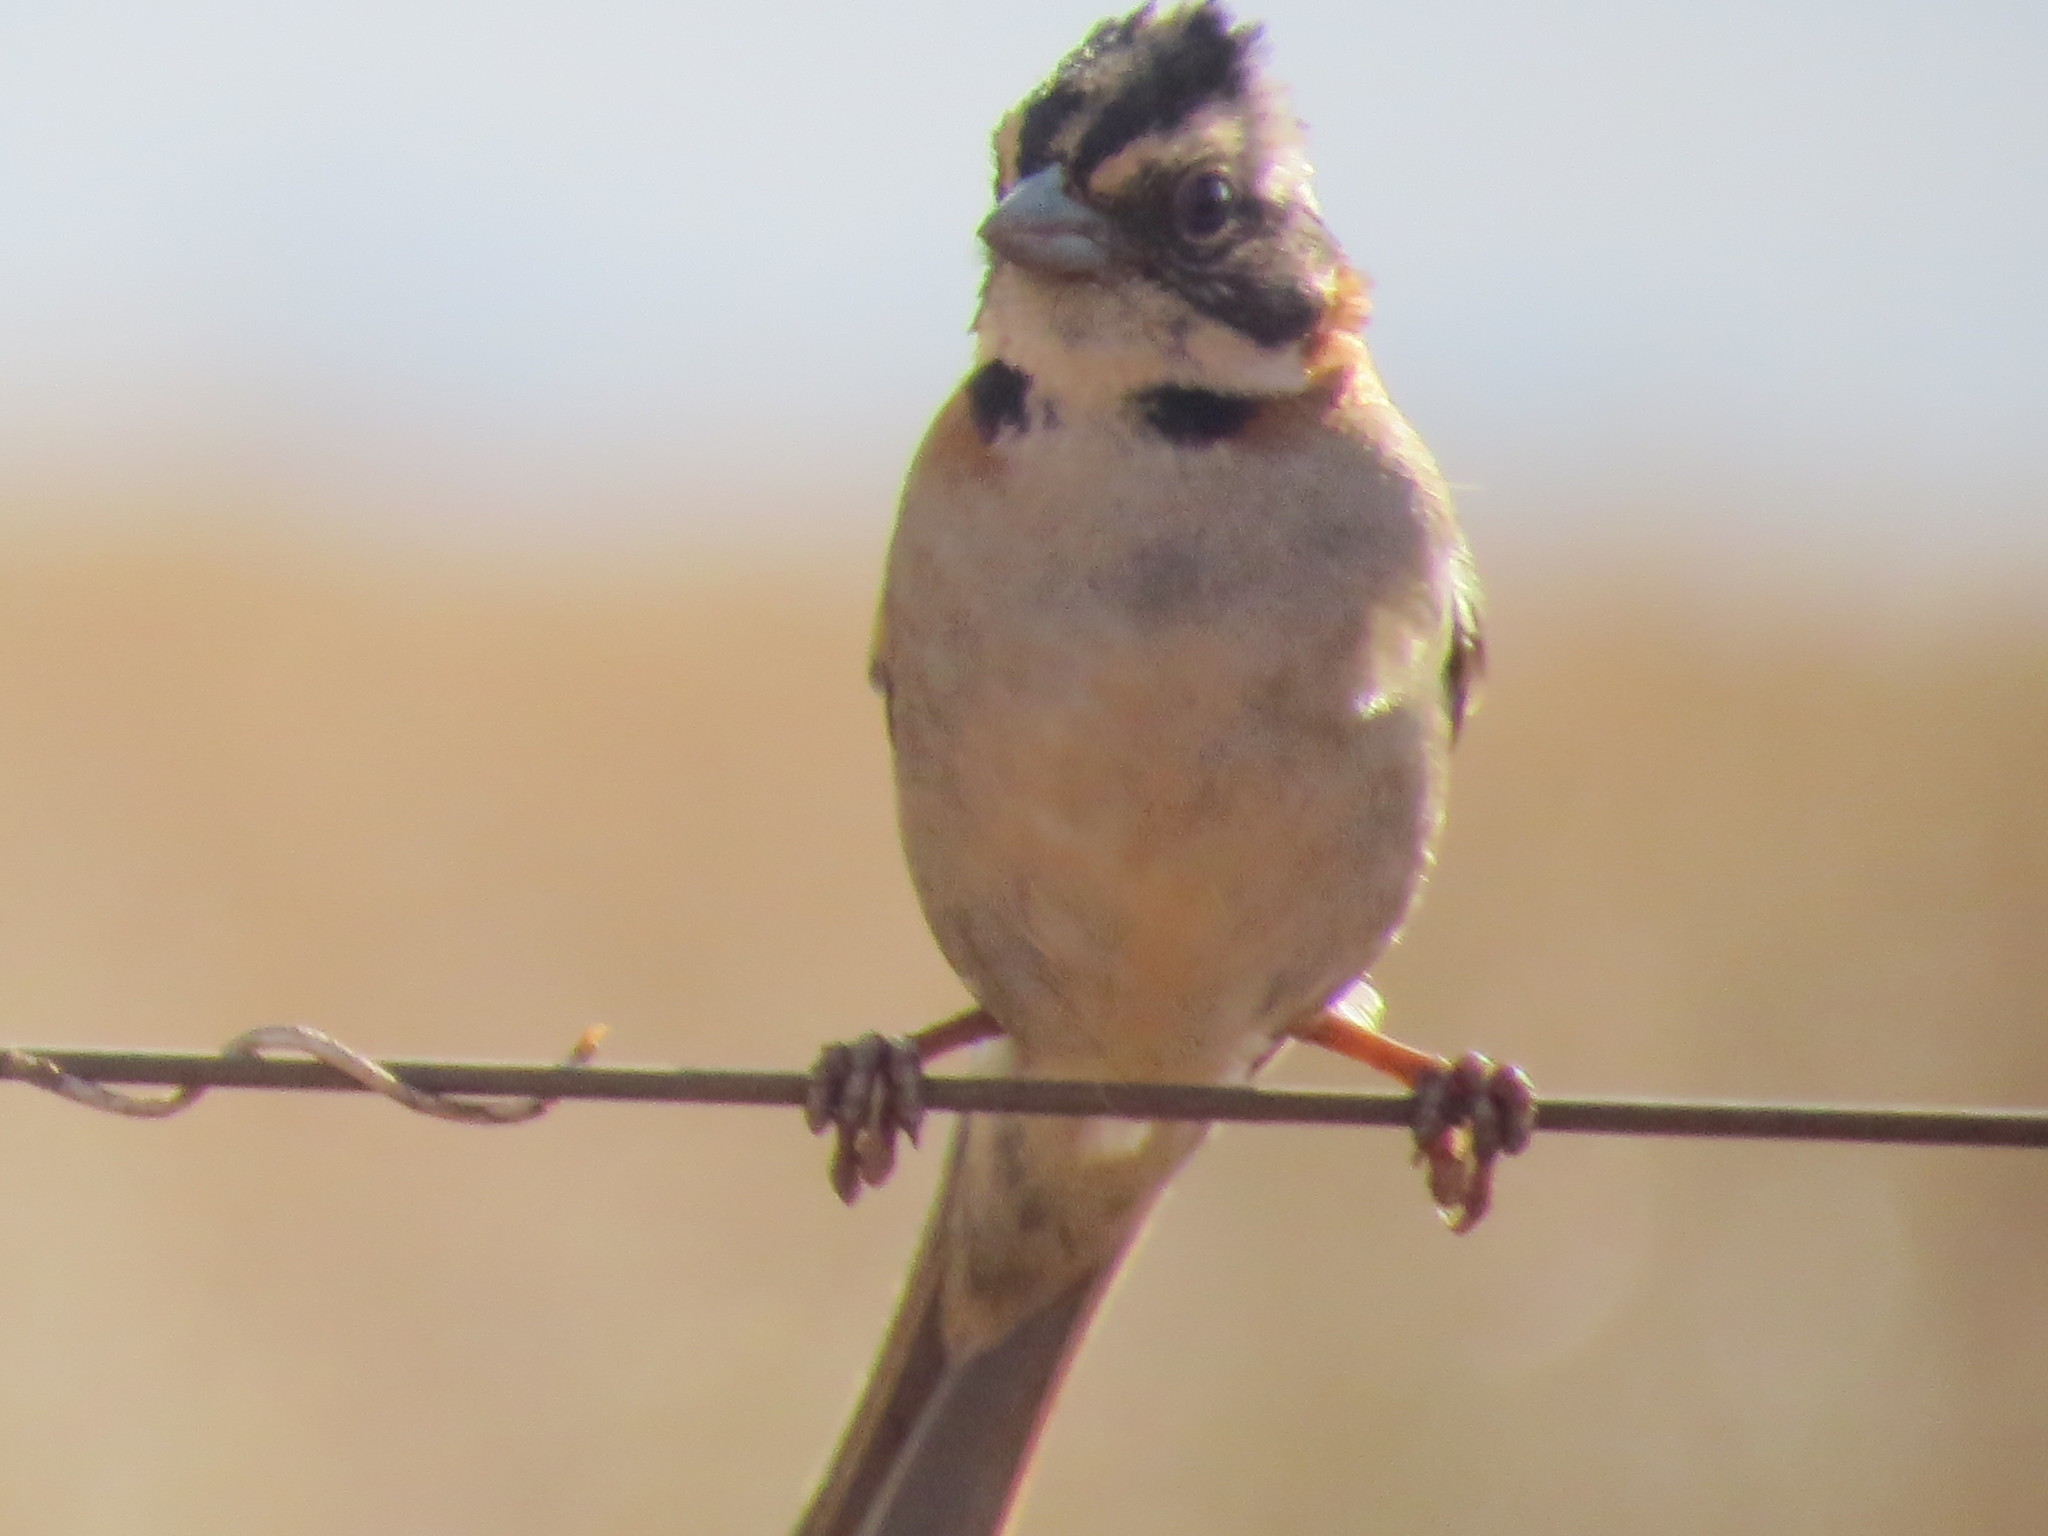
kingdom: Animalia
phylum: Chordata
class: Aves
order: Passeriformes
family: Passerellidae
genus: Zonotrichia
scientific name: Zonotrichia capensis
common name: Rufous-collared sparrow
